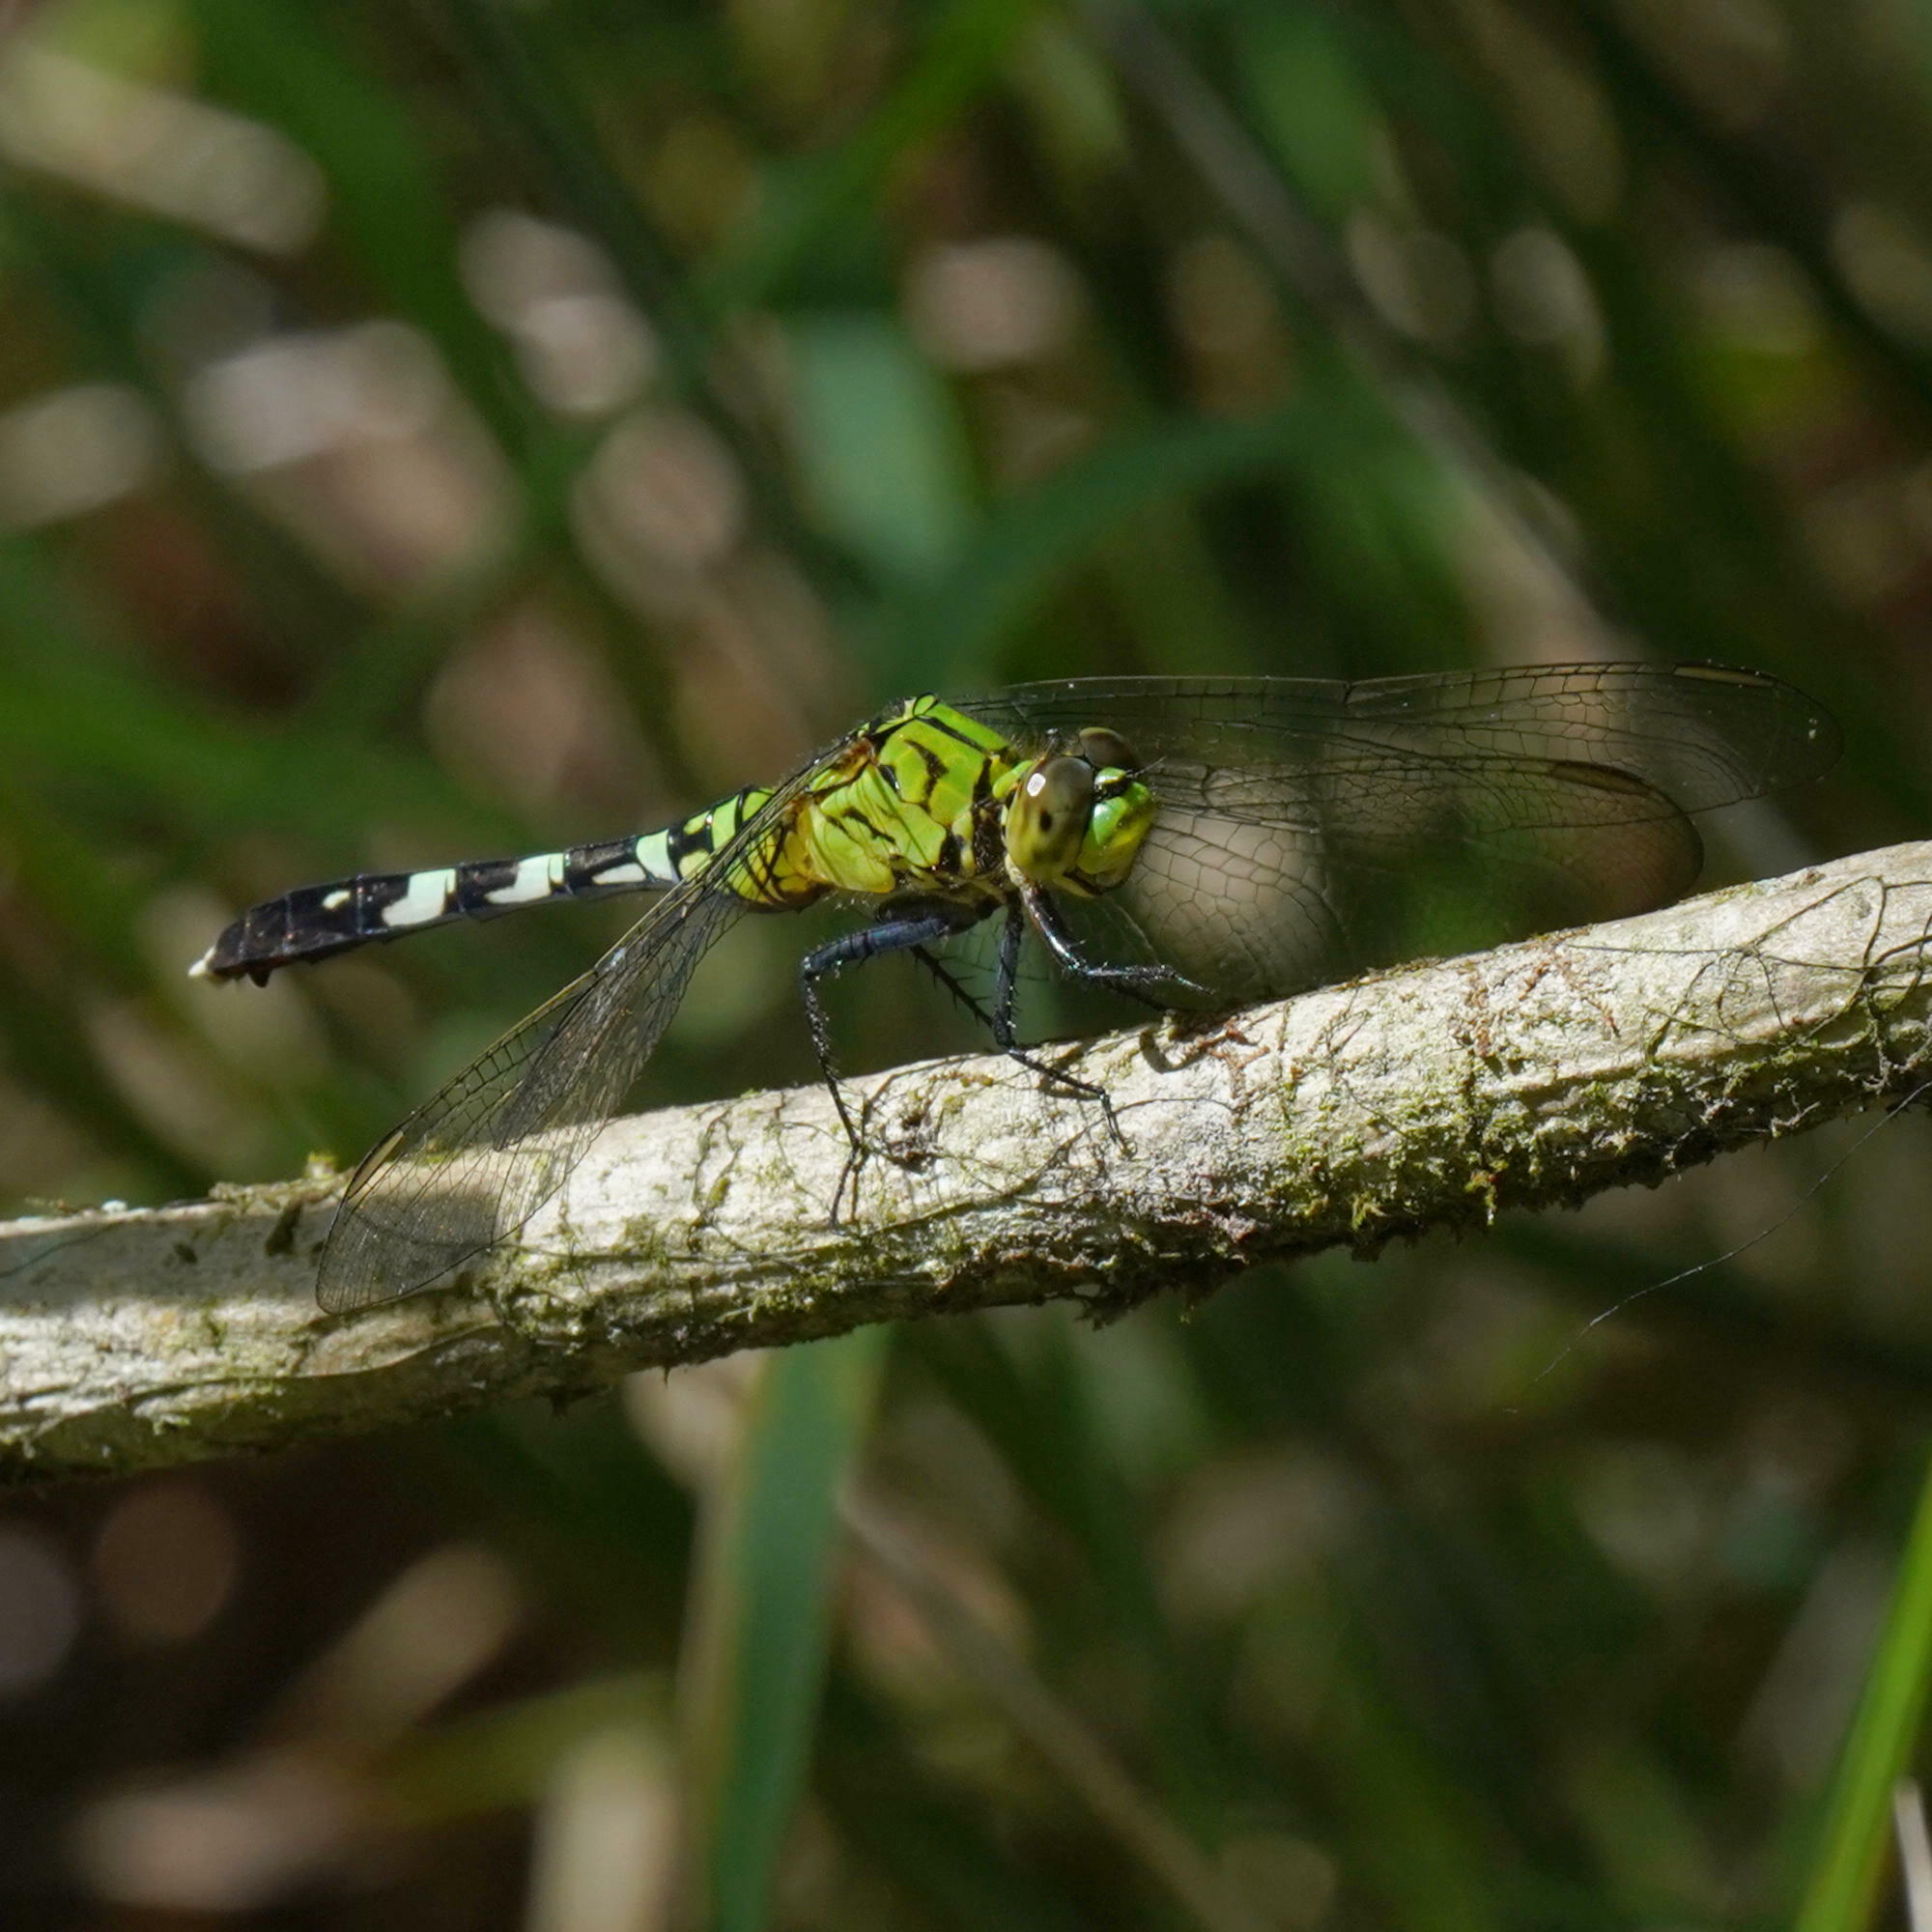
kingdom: Animalia
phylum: Arthropoda
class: Insecta
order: Odonata
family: Libellulidae
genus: Erythemis
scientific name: Erythemis simplicicollis
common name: Eastern pondhawk
